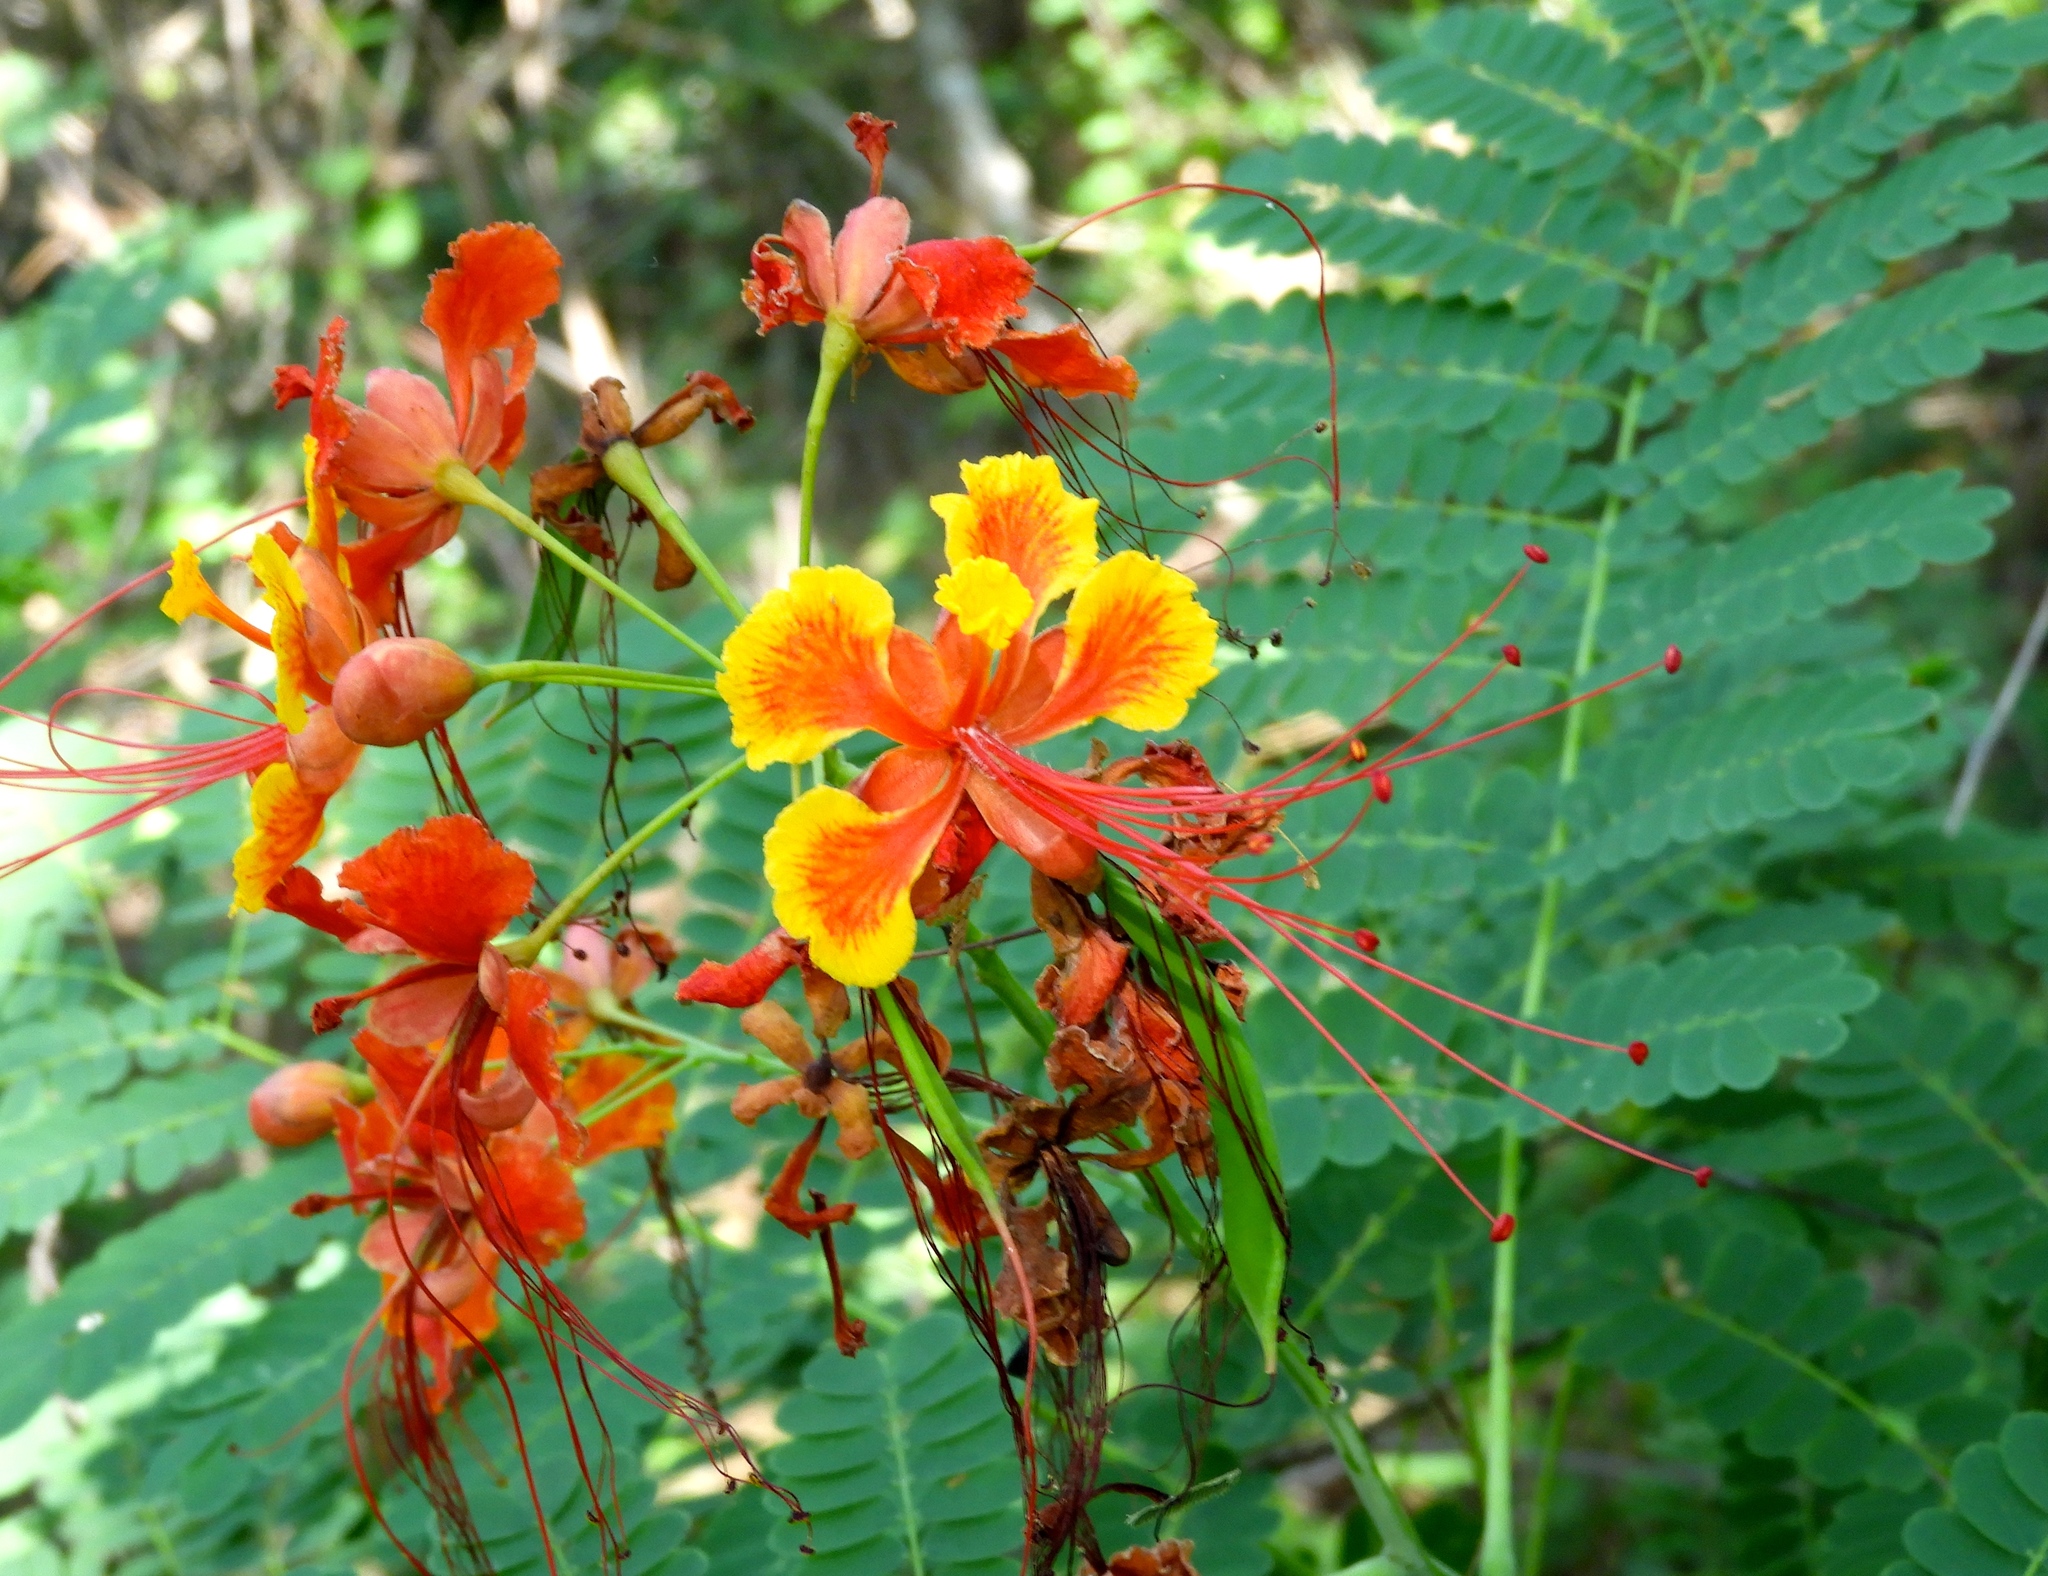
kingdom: Plantae
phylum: Tracheophyta
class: Magnoliopsida
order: Fabales
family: Fabaceae
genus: Caesalpinia
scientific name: Caesalpinia pulcherrima
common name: Pride-of-barbados
